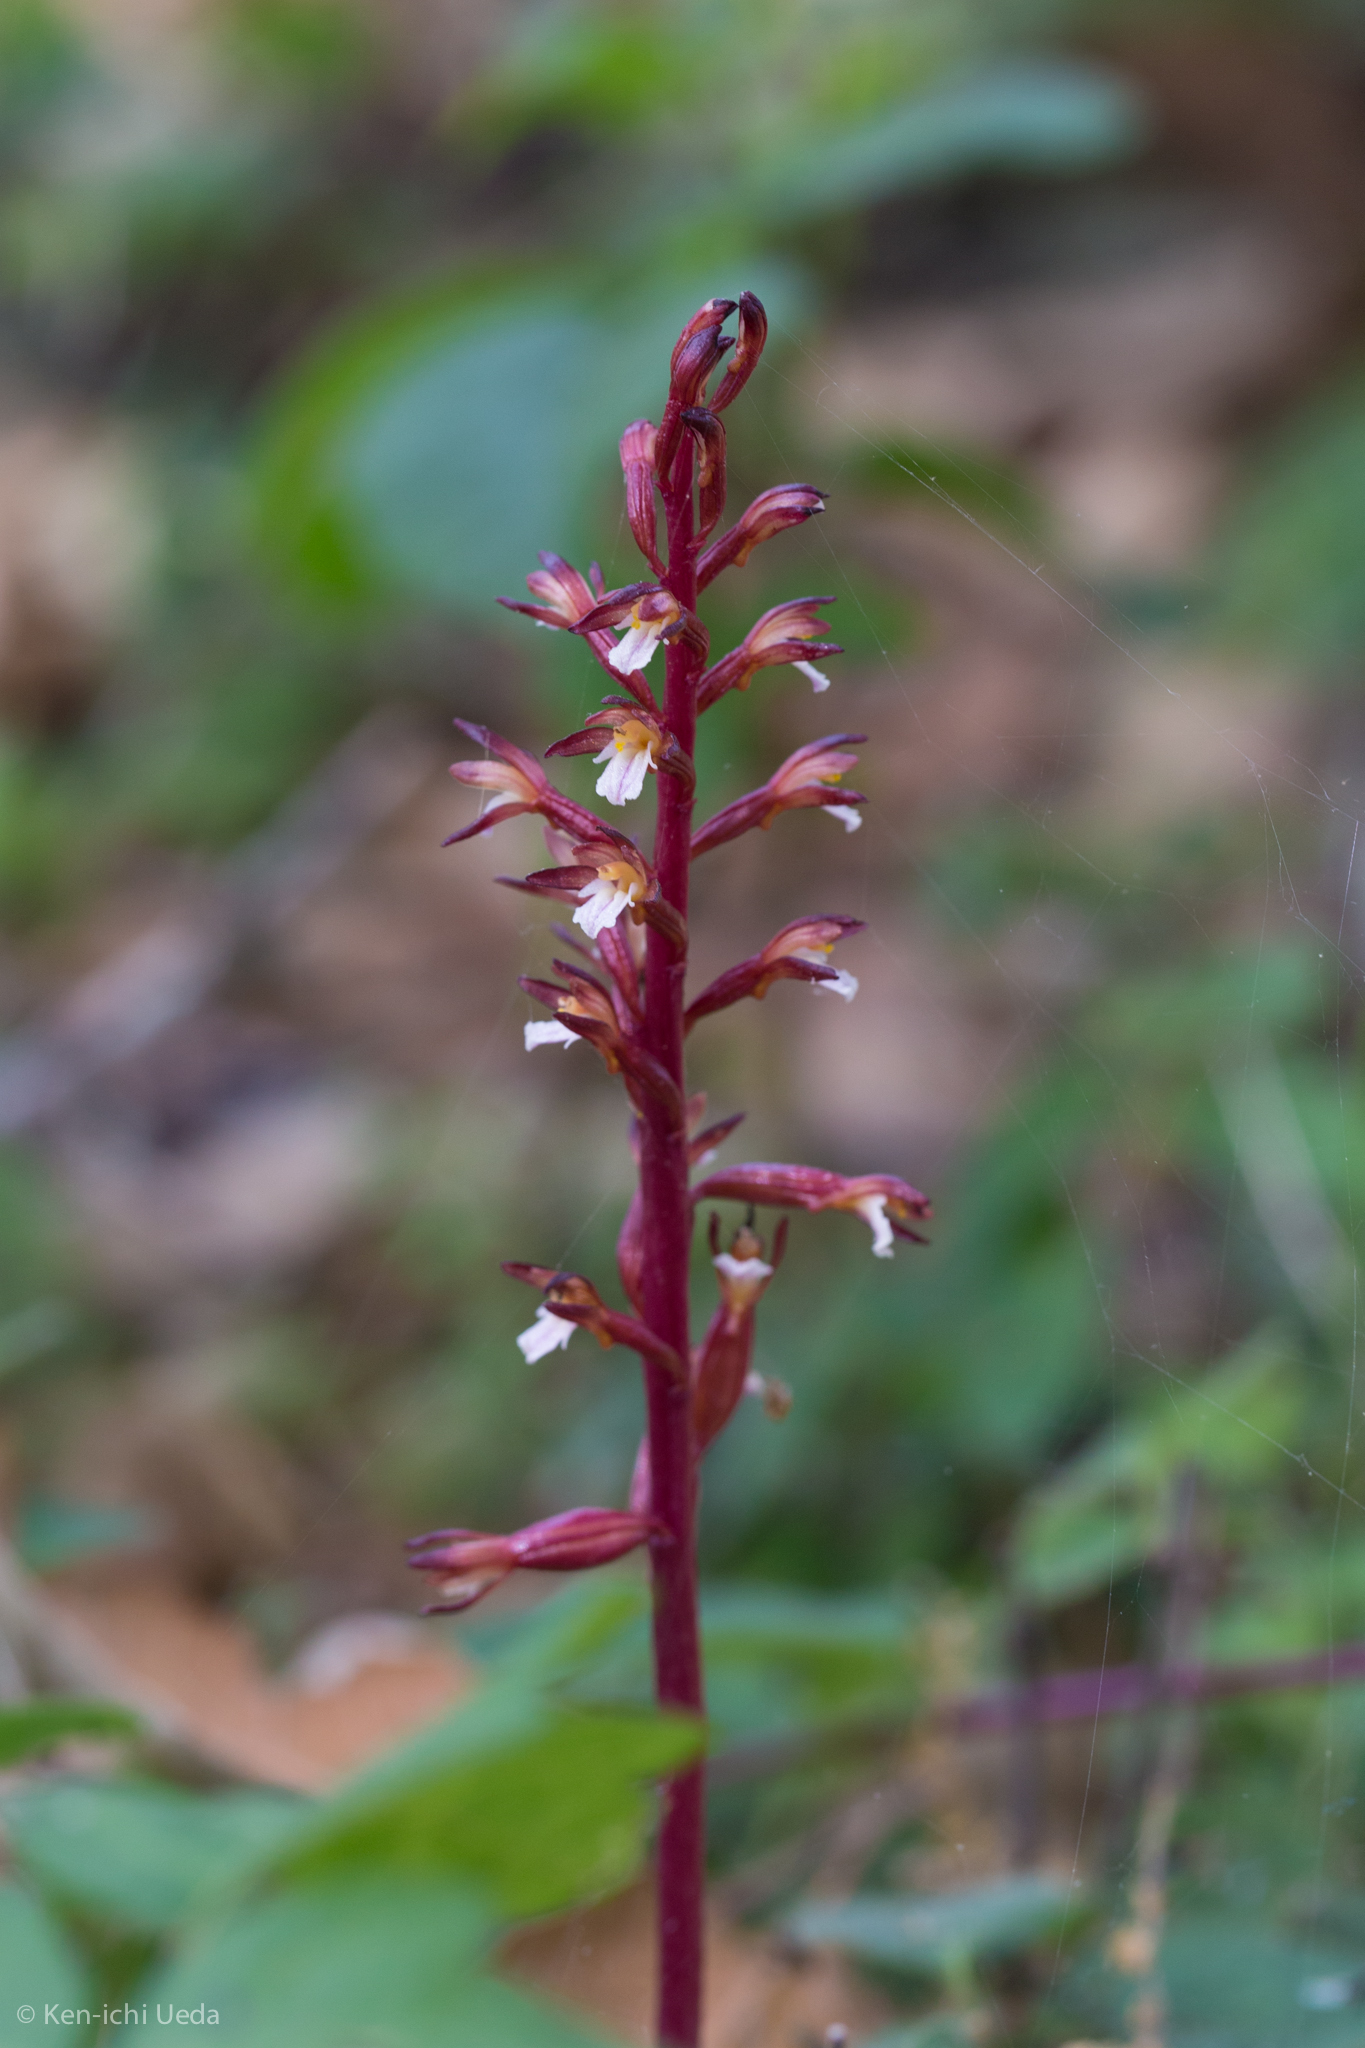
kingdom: Plantae
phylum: Tracheophyta
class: Liliopsida
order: Asparagales
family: Orchidaceae
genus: Corallorhiza
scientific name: Corallorhiza maculata
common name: Spotted coralroot
